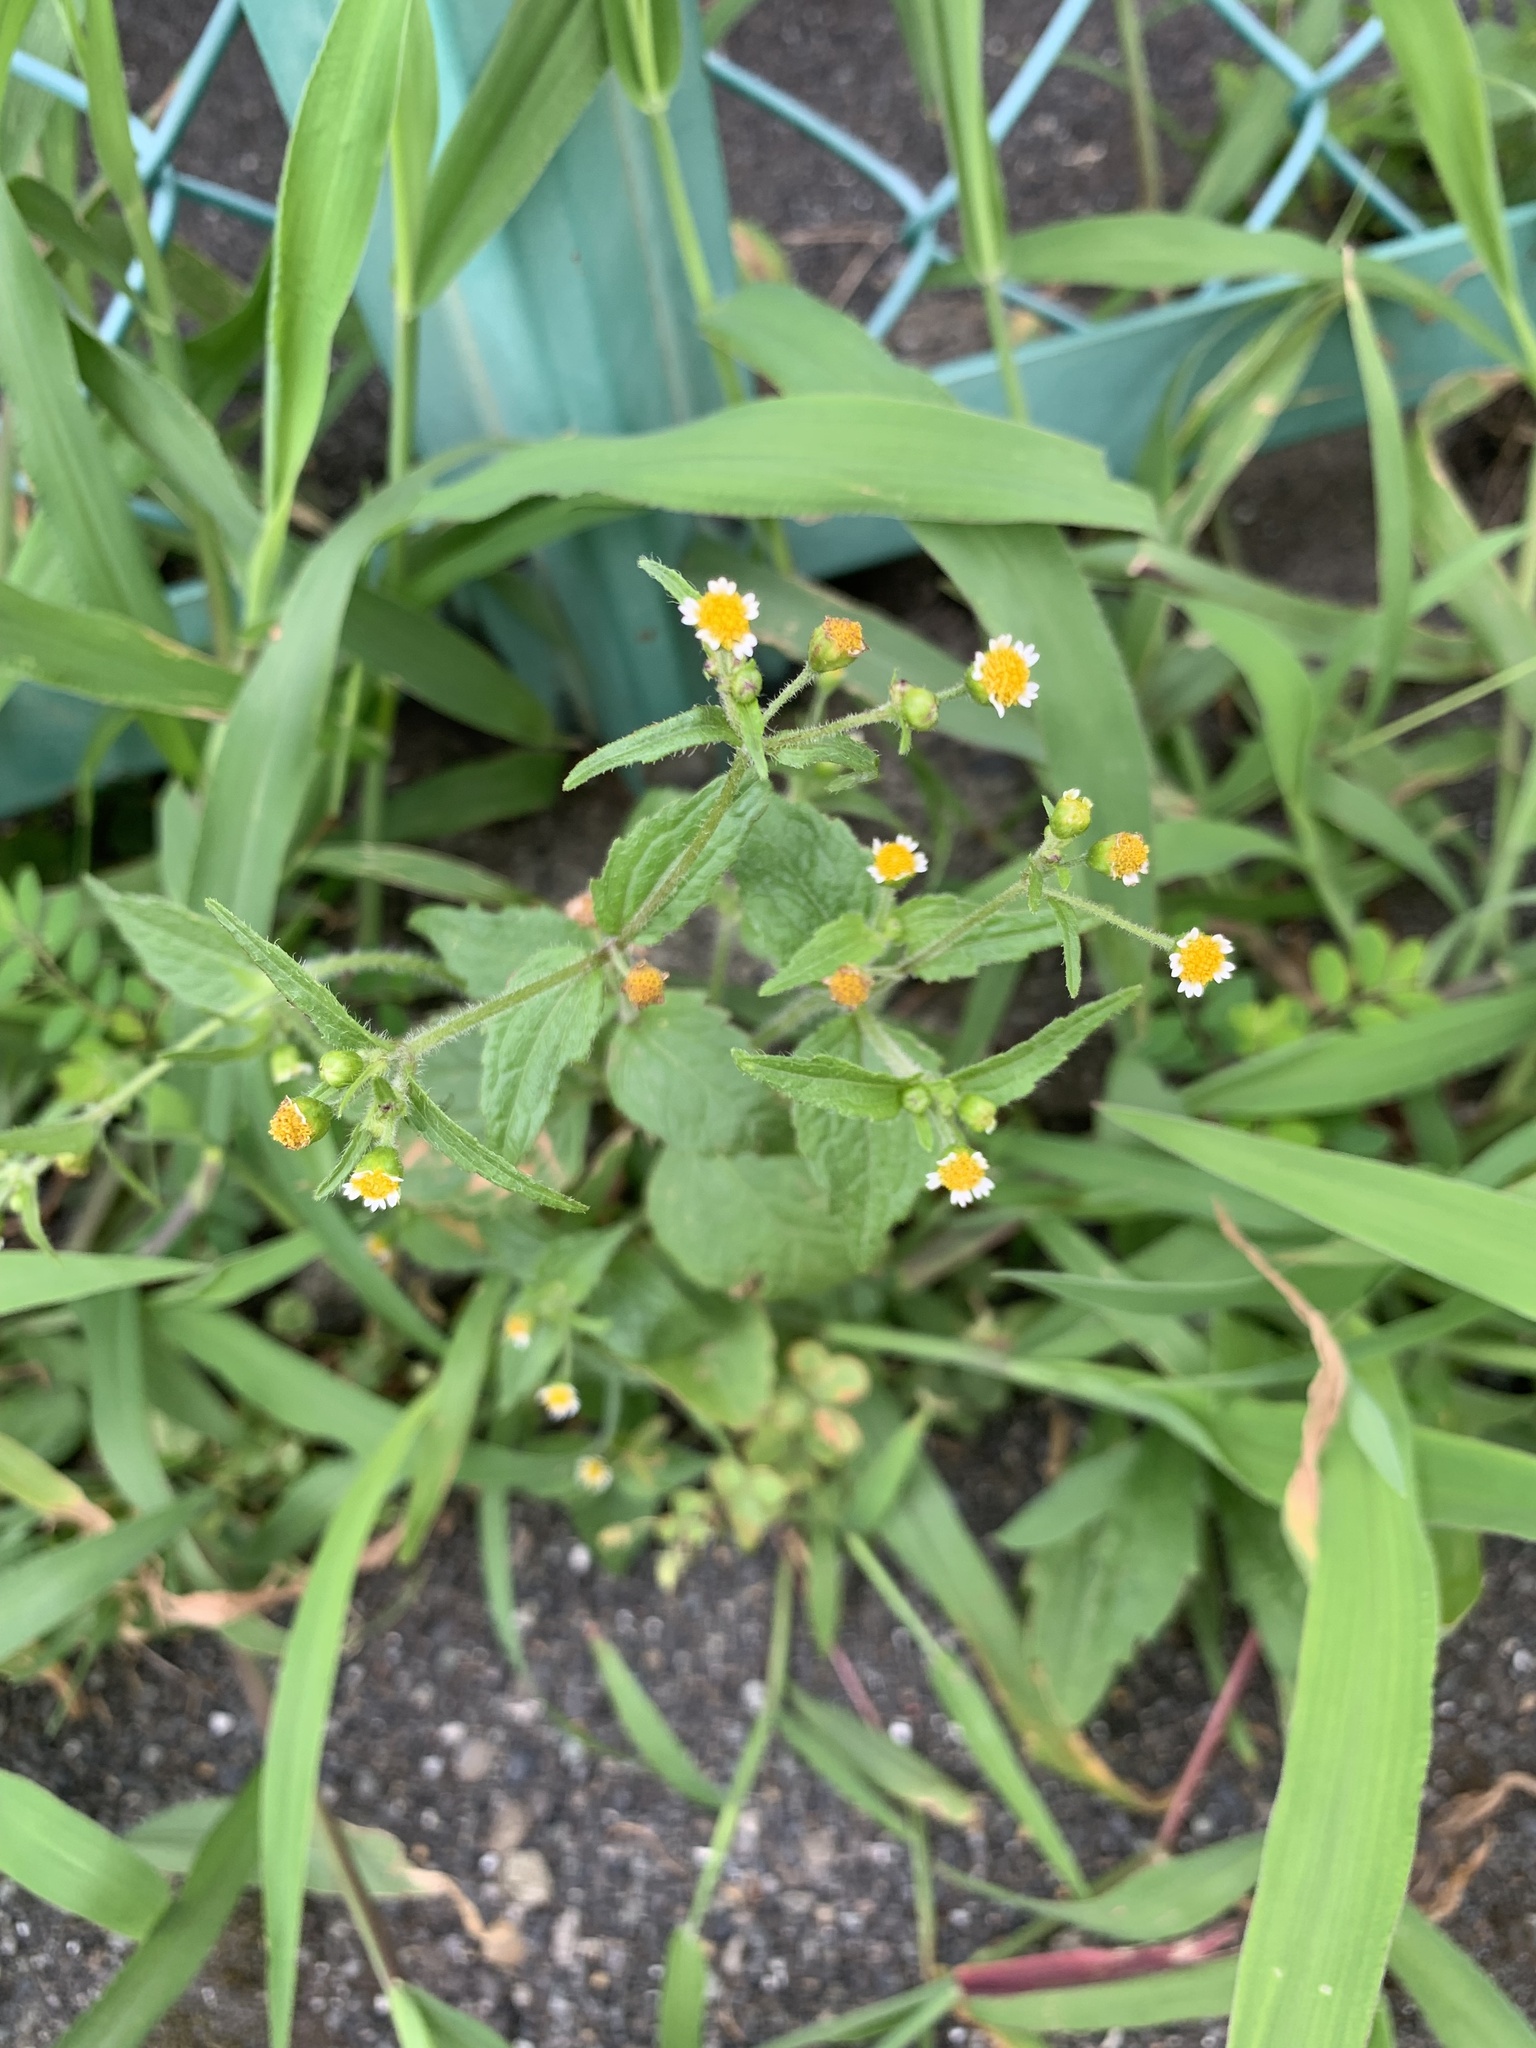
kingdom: Plantae
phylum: Tracheophyta
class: Magnoliopsida
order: Asterales
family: Asteraceae
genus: Galinsoga
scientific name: Galinsoga quadriradiata
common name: Shaggy soldier
